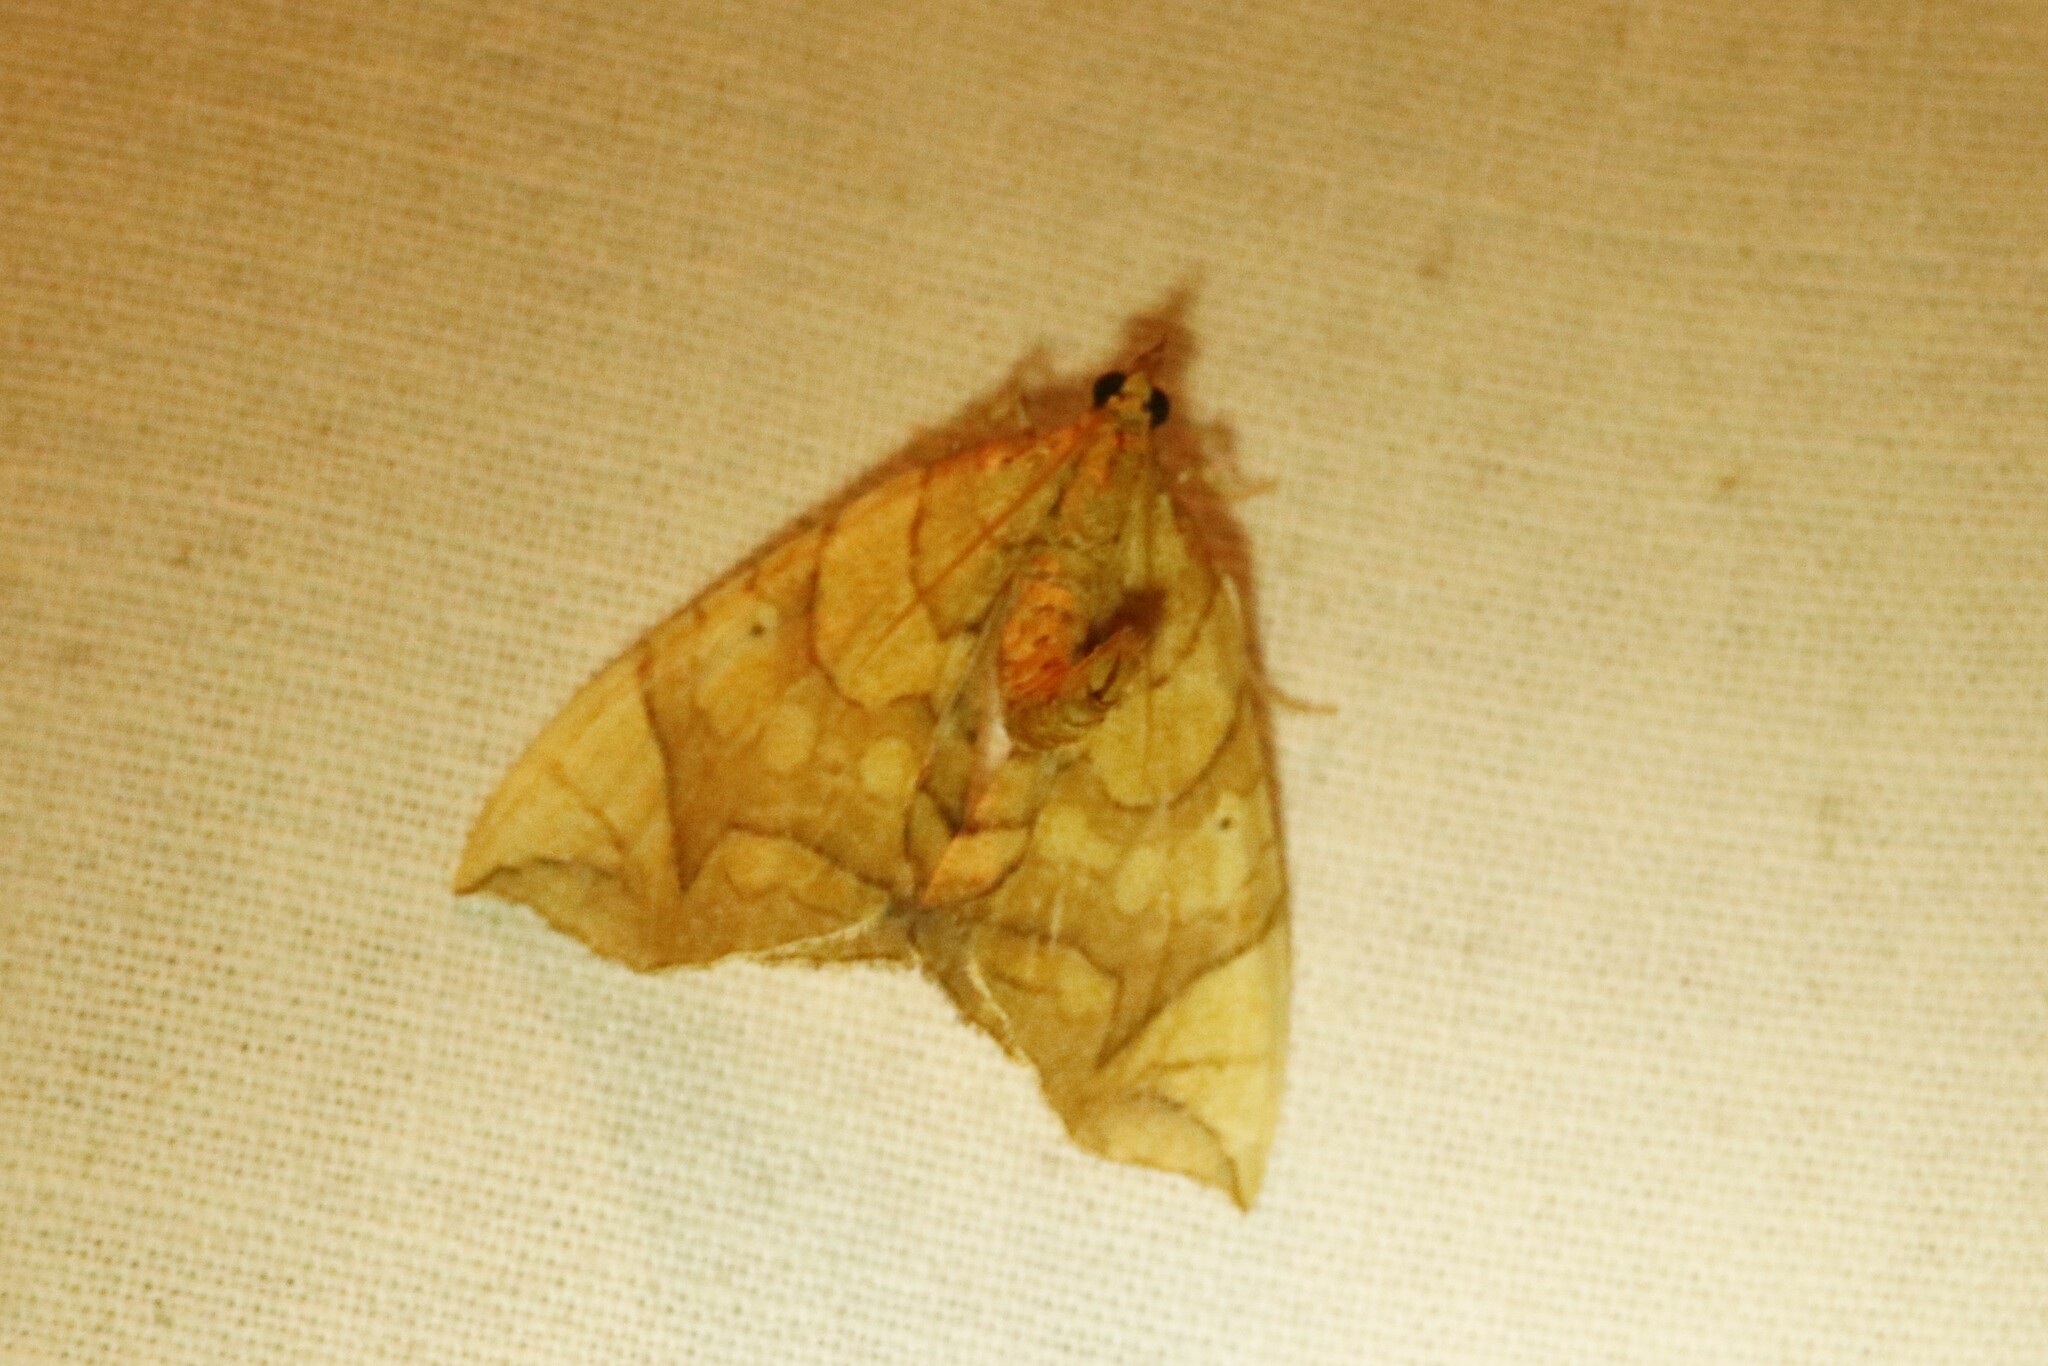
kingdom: Animalia
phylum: Arthropoda
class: Insecta
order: Lepidoptera
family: Geometridae
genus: Eulithis
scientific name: Eulithis
